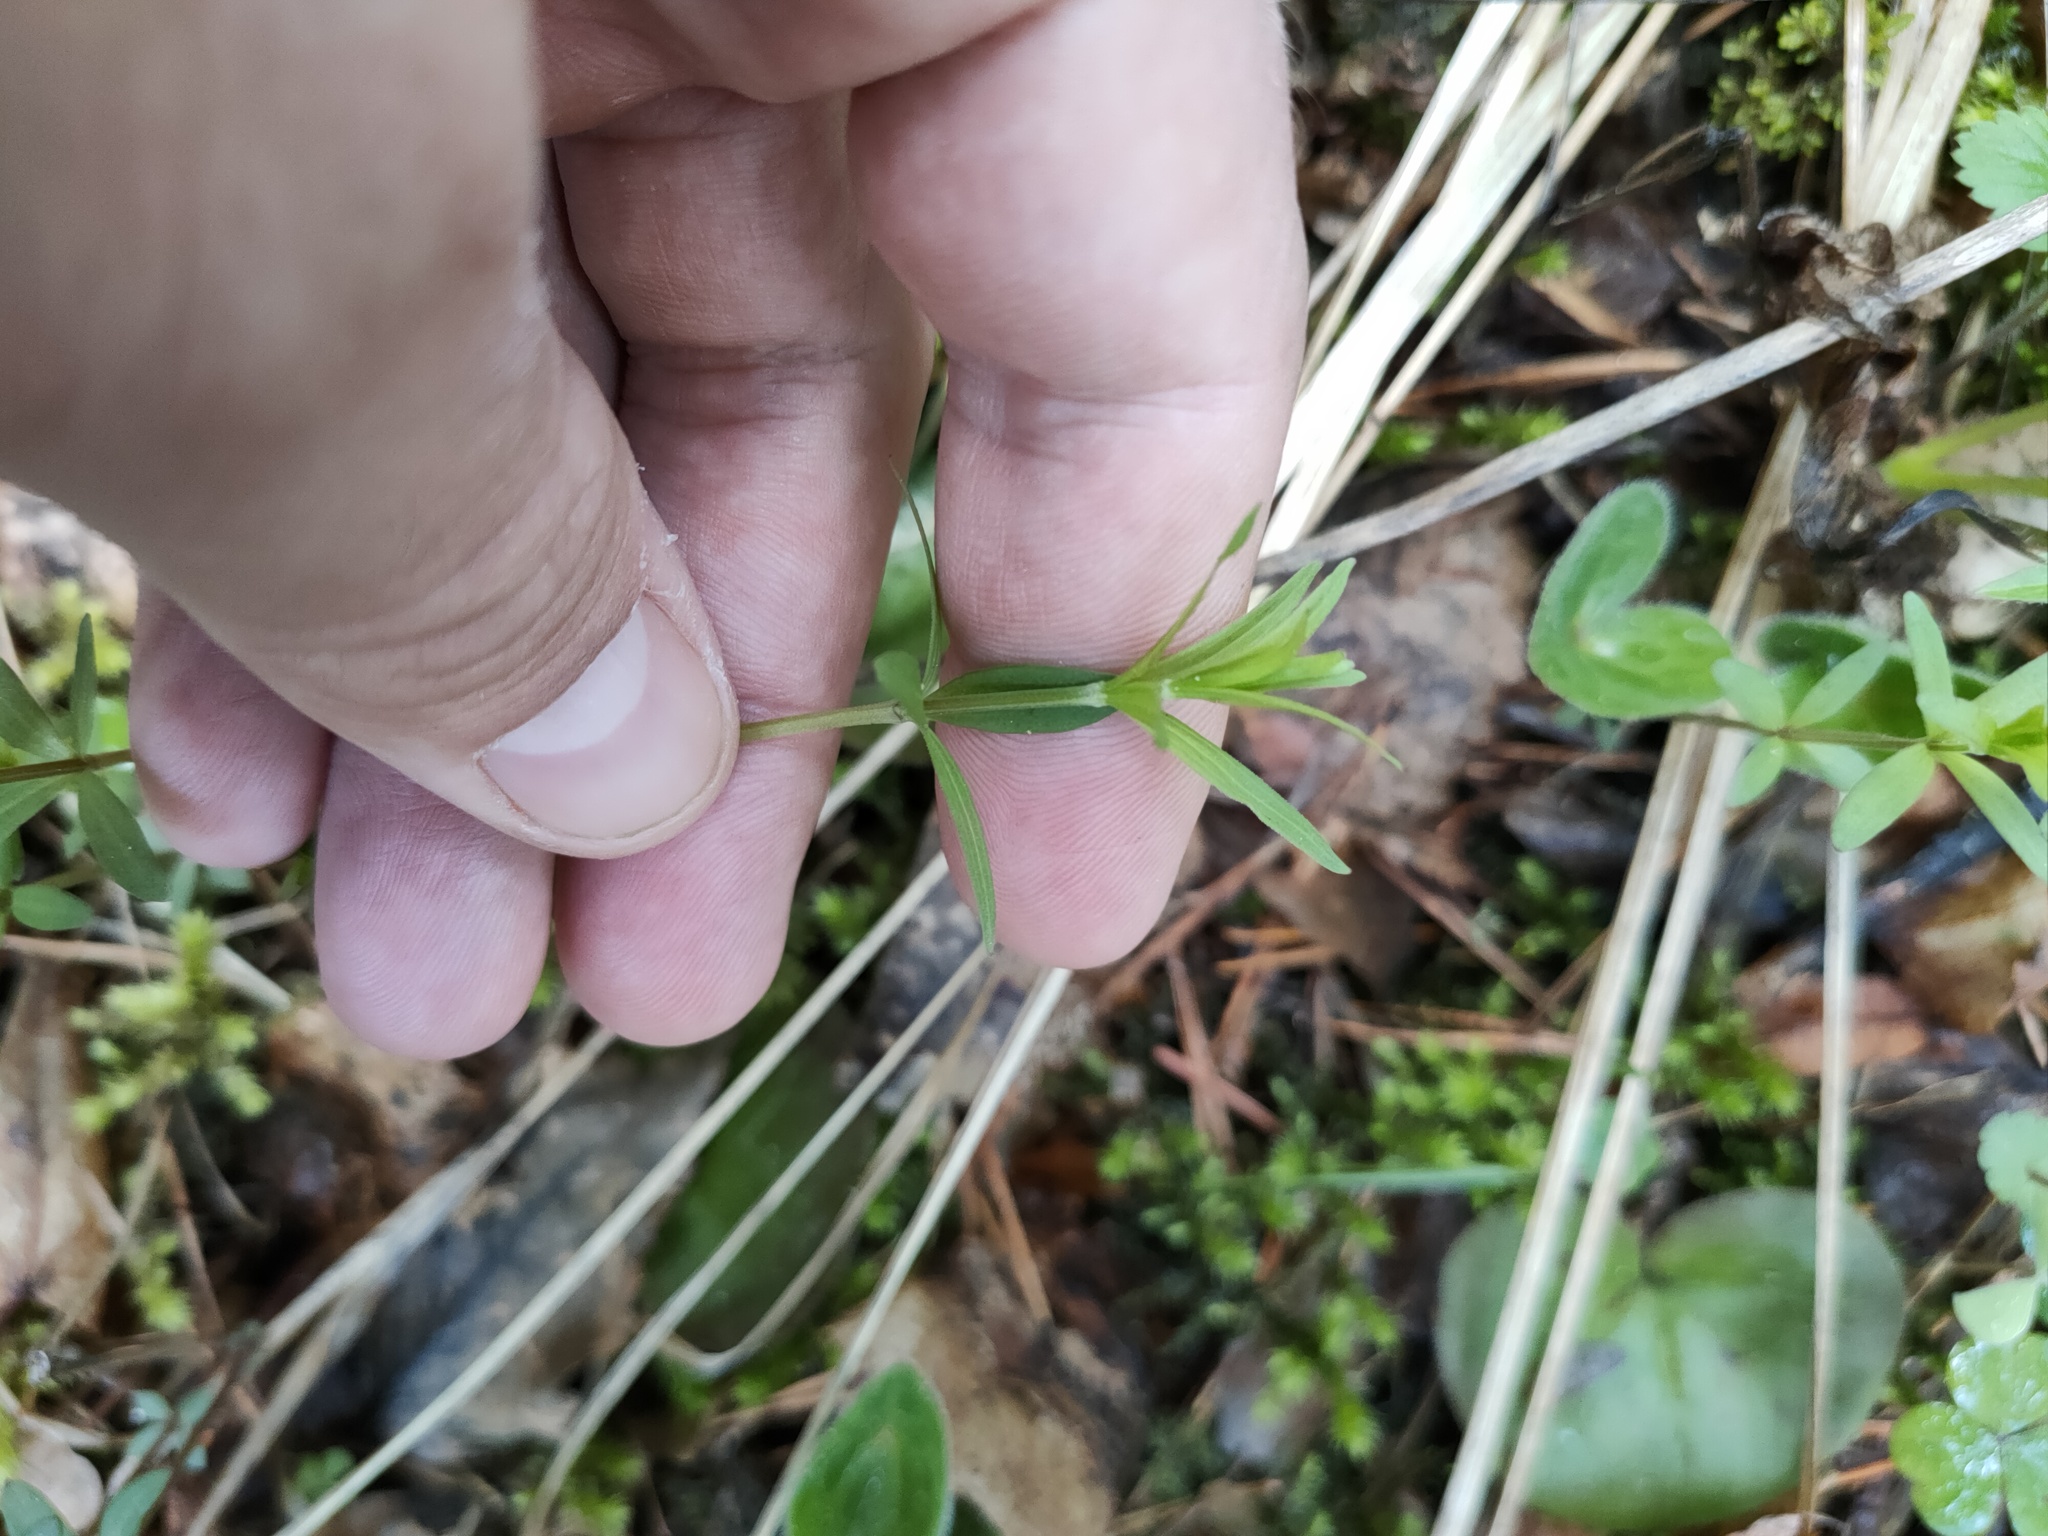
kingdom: Plantae
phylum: Tracheophyta
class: Magnoliopsida
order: Gentianales
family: Rubiaceae
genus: Galium
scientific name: Galium boreale
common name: Northern bedstraw
